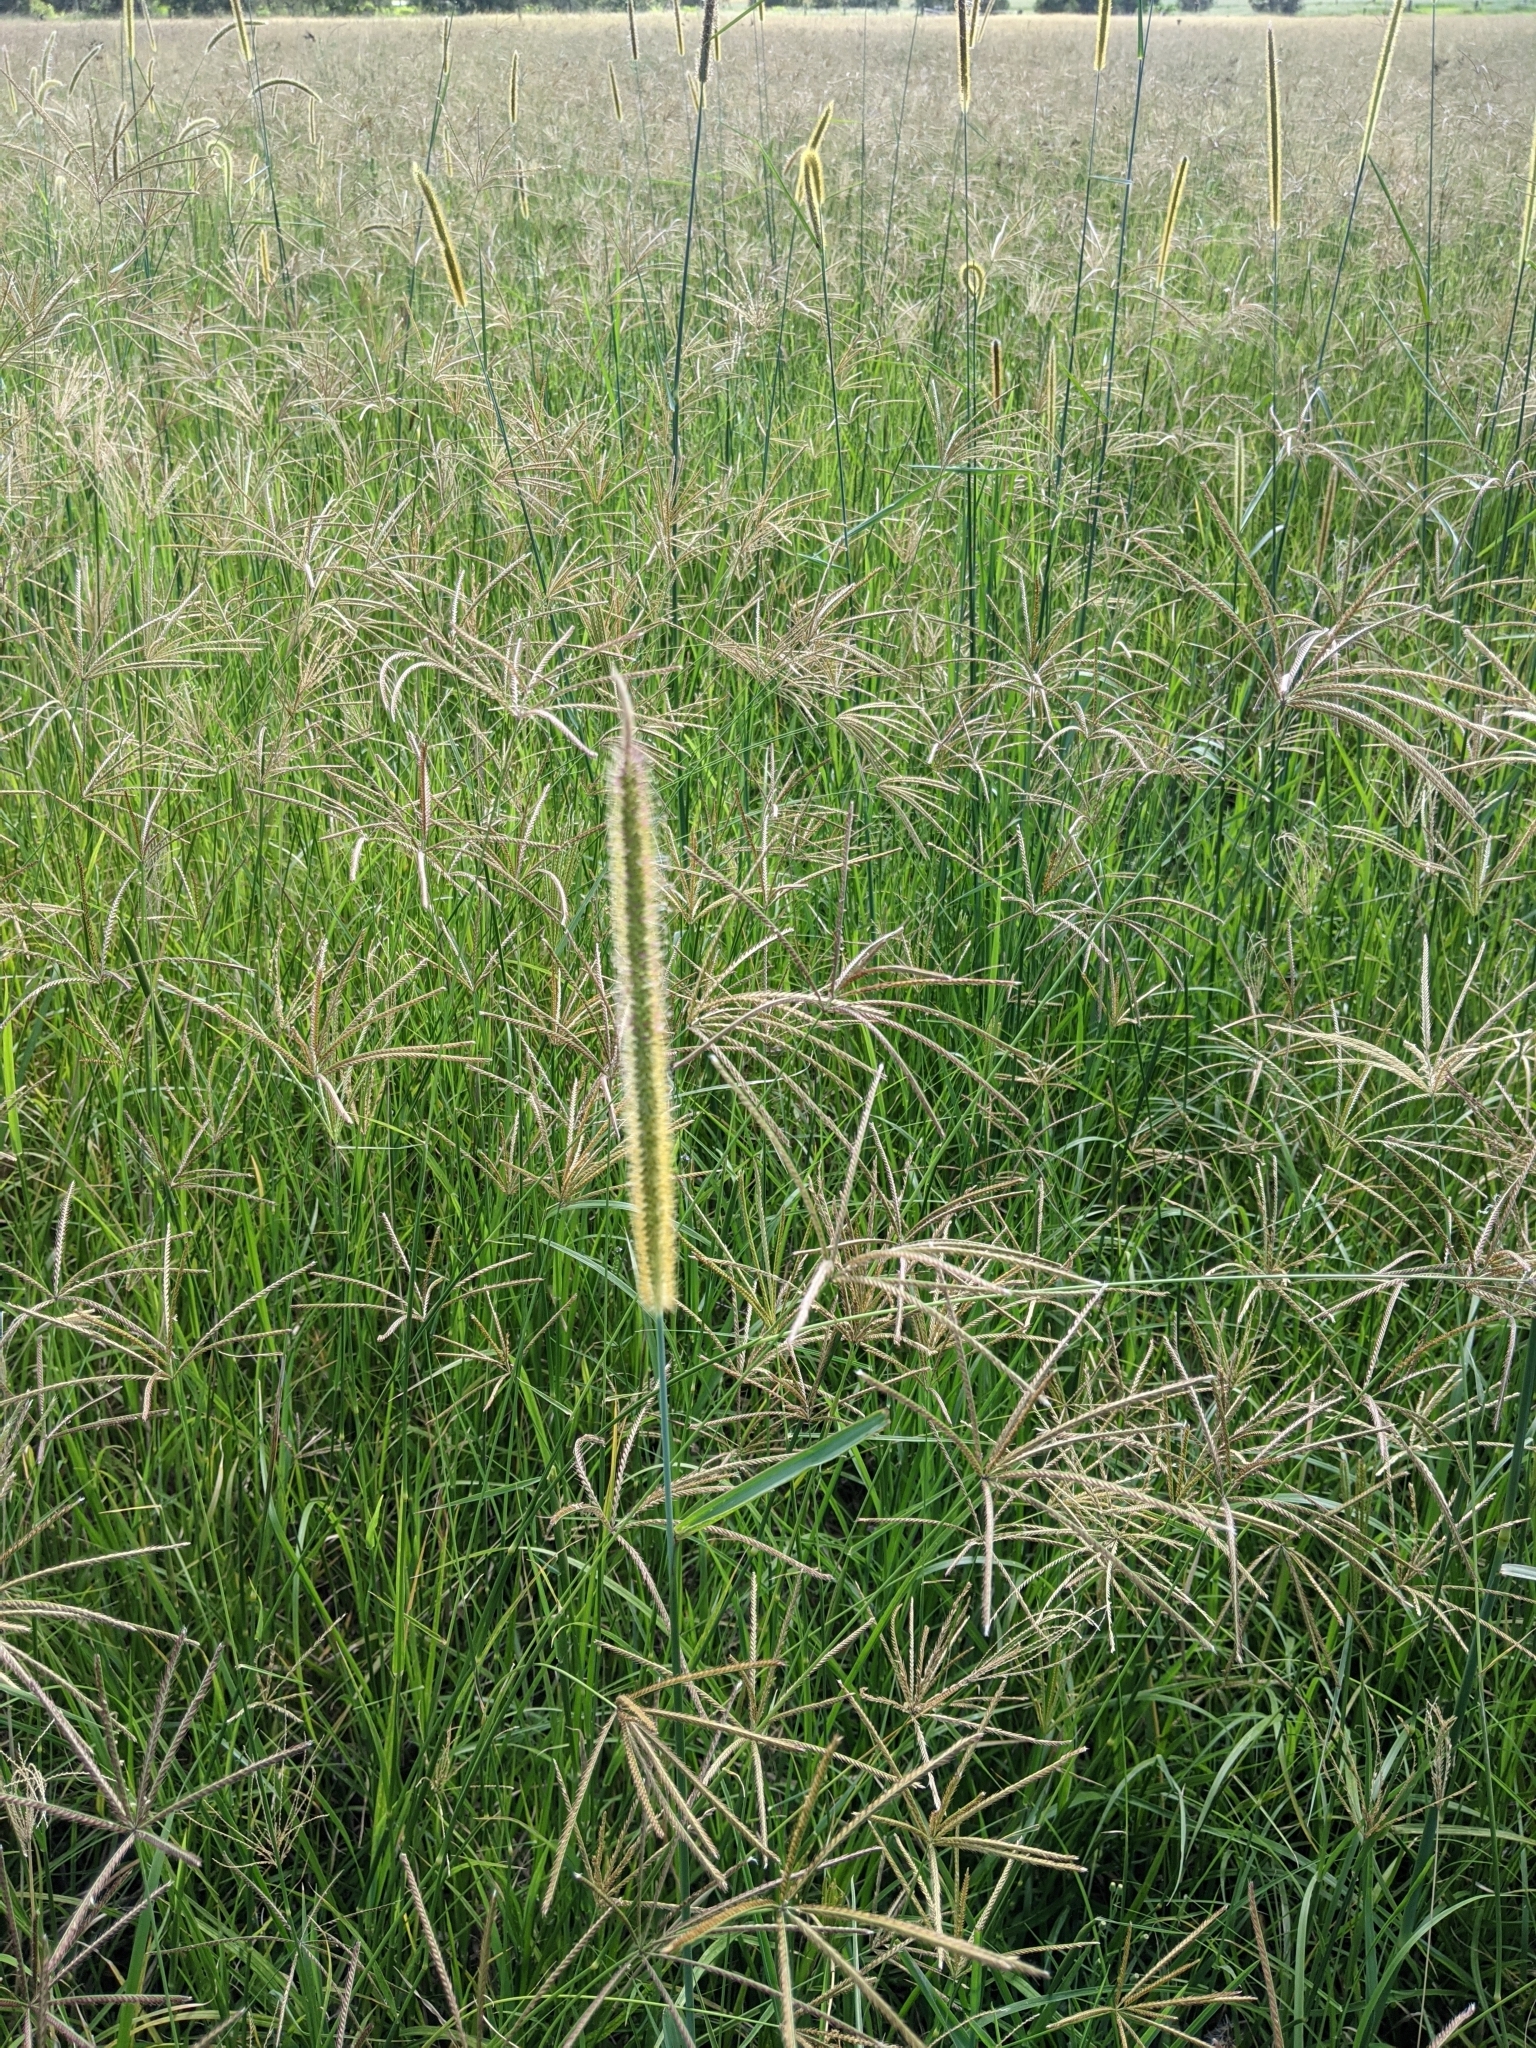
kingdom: Plantae
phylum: Tracheophyta
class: Liliopsida
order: Poales
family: Poaceae
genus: Setaria
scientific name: Setaria sphacelata
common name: African bristlegrass
